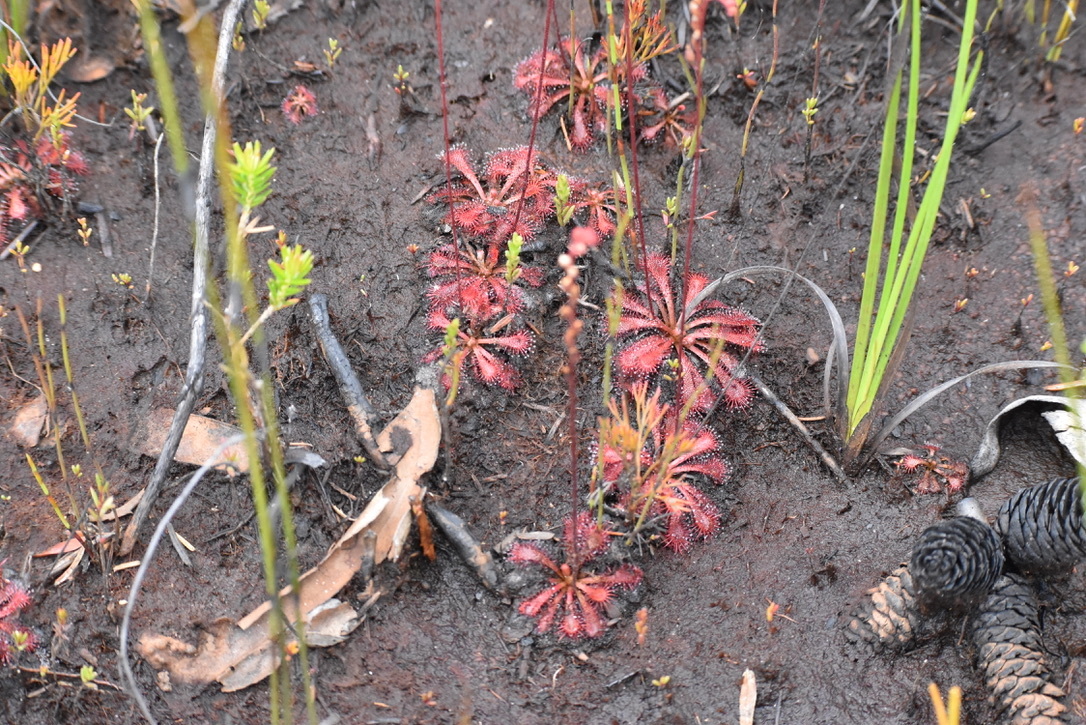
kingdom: Plantae
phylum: Tracheophyta
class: Magnoliopsida
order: Caryophyllales
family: Droseraceae
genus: Drosera
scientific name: Drosera spatulata
